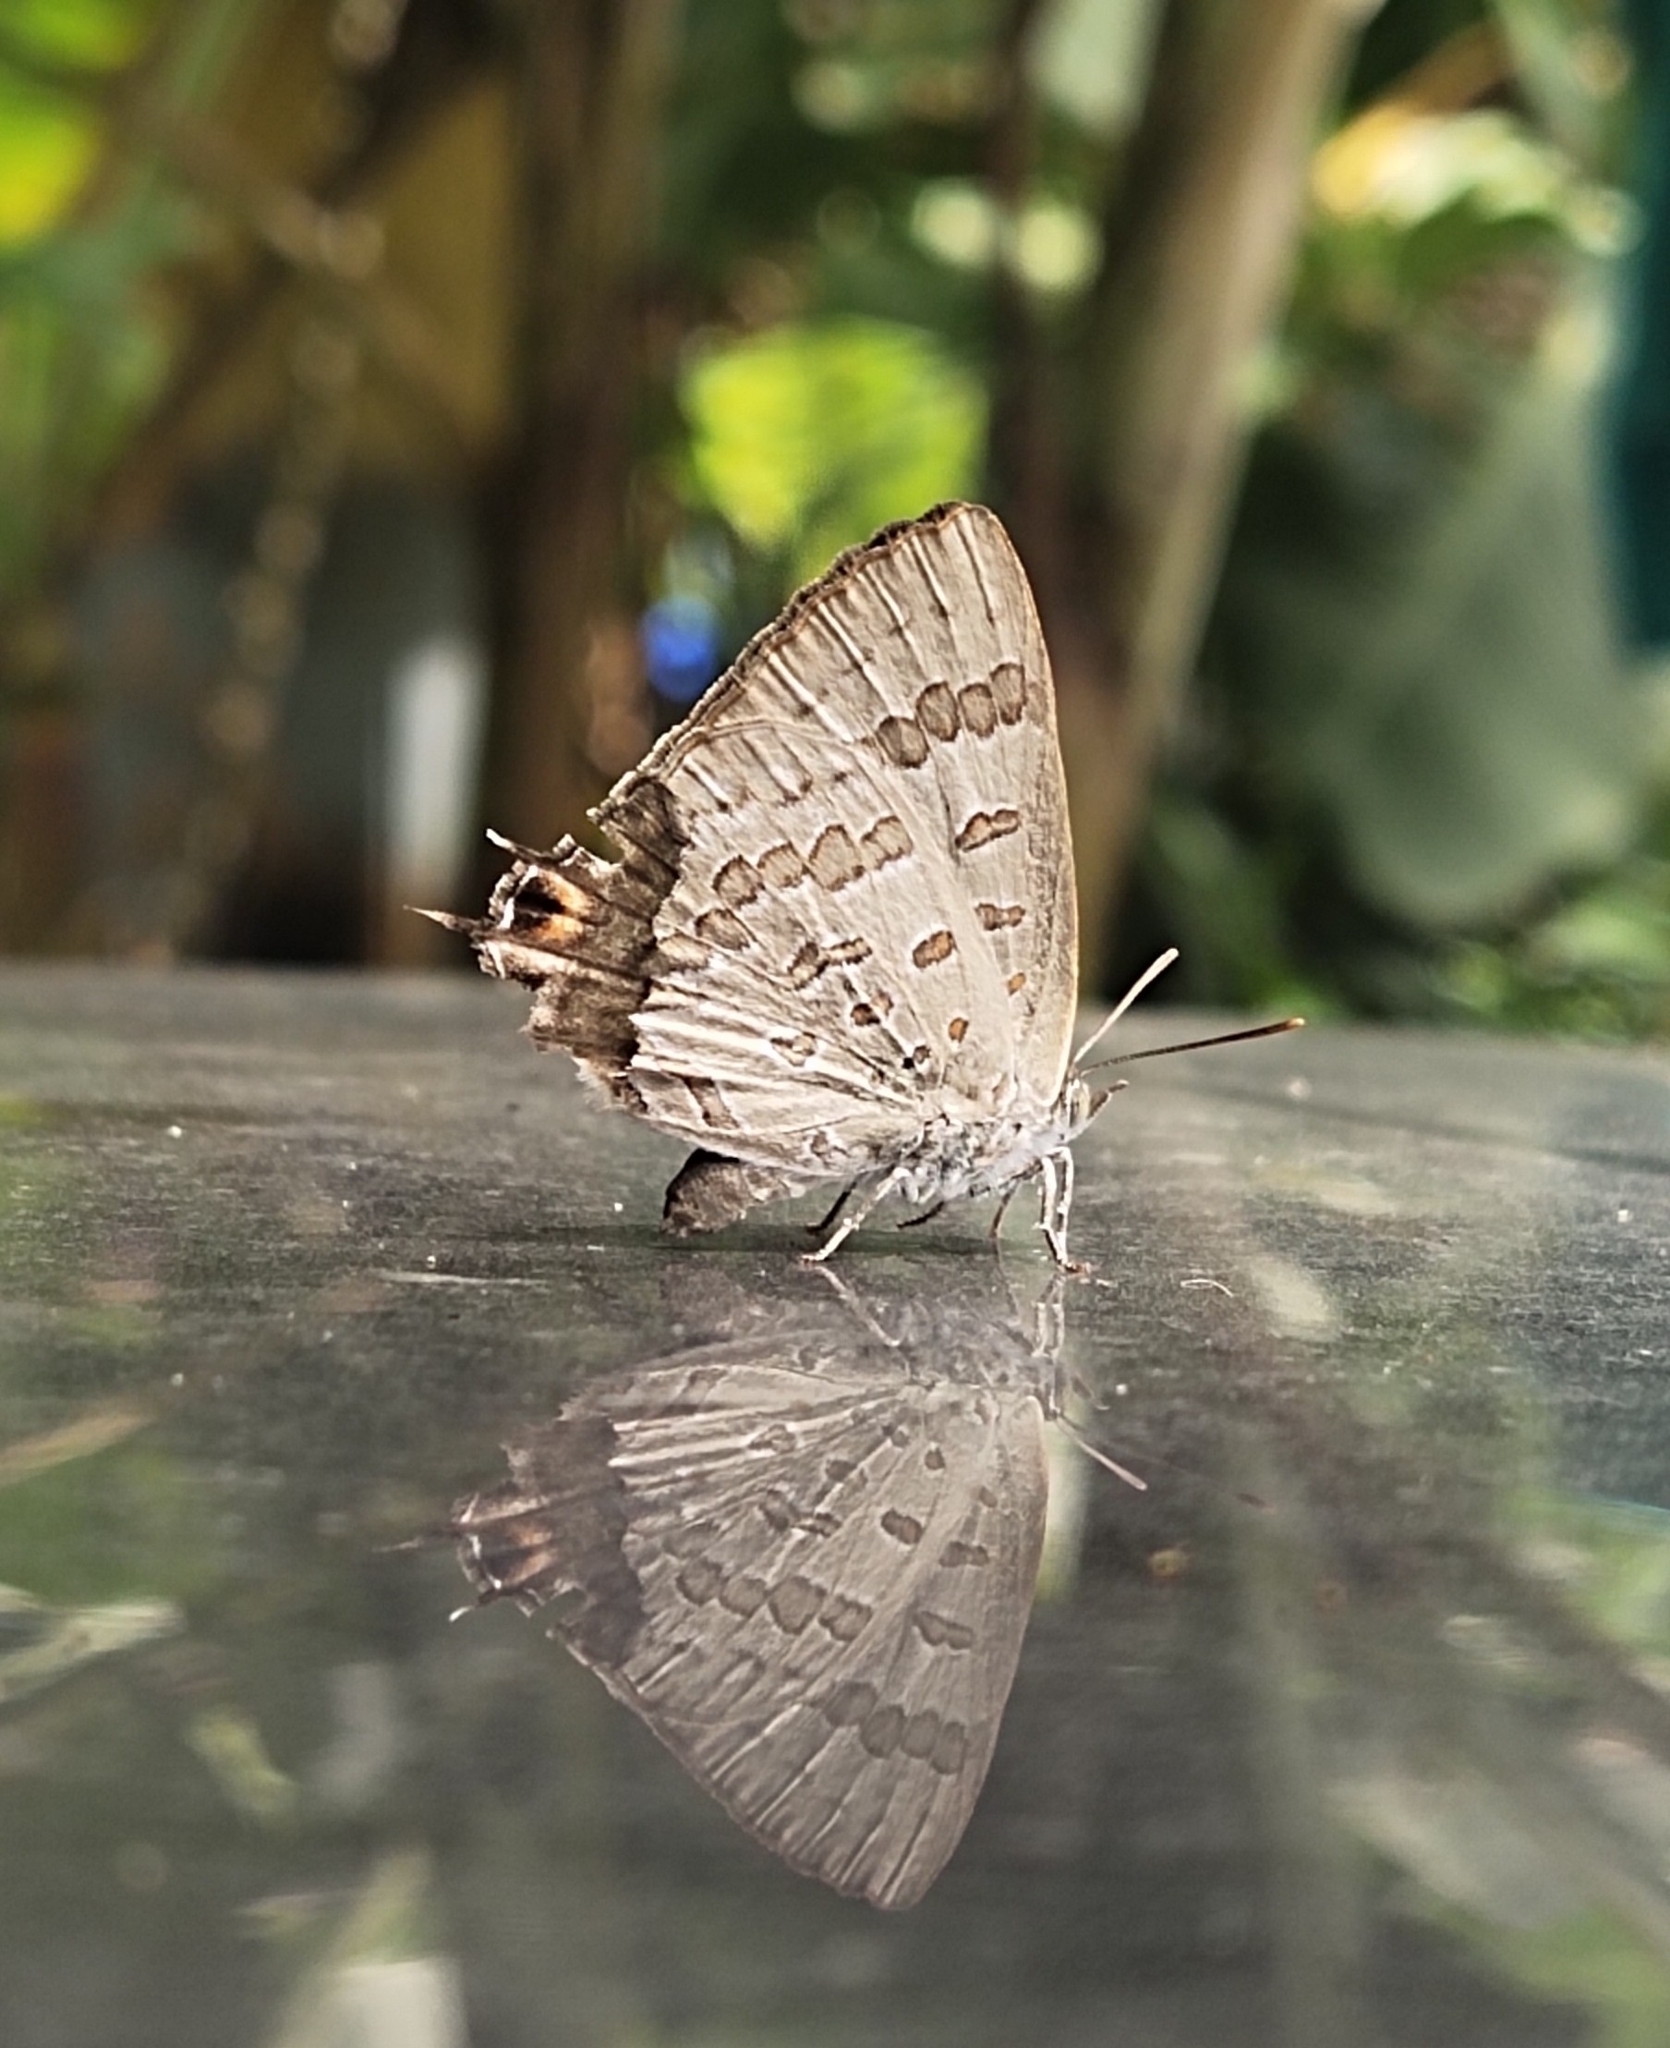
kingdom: Animalia
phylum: Arthropoda
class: Insecta
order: Lepidoptera
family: Lycaenidae
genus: Zesius
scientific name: Zesius chrysomallus
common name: Redspot
